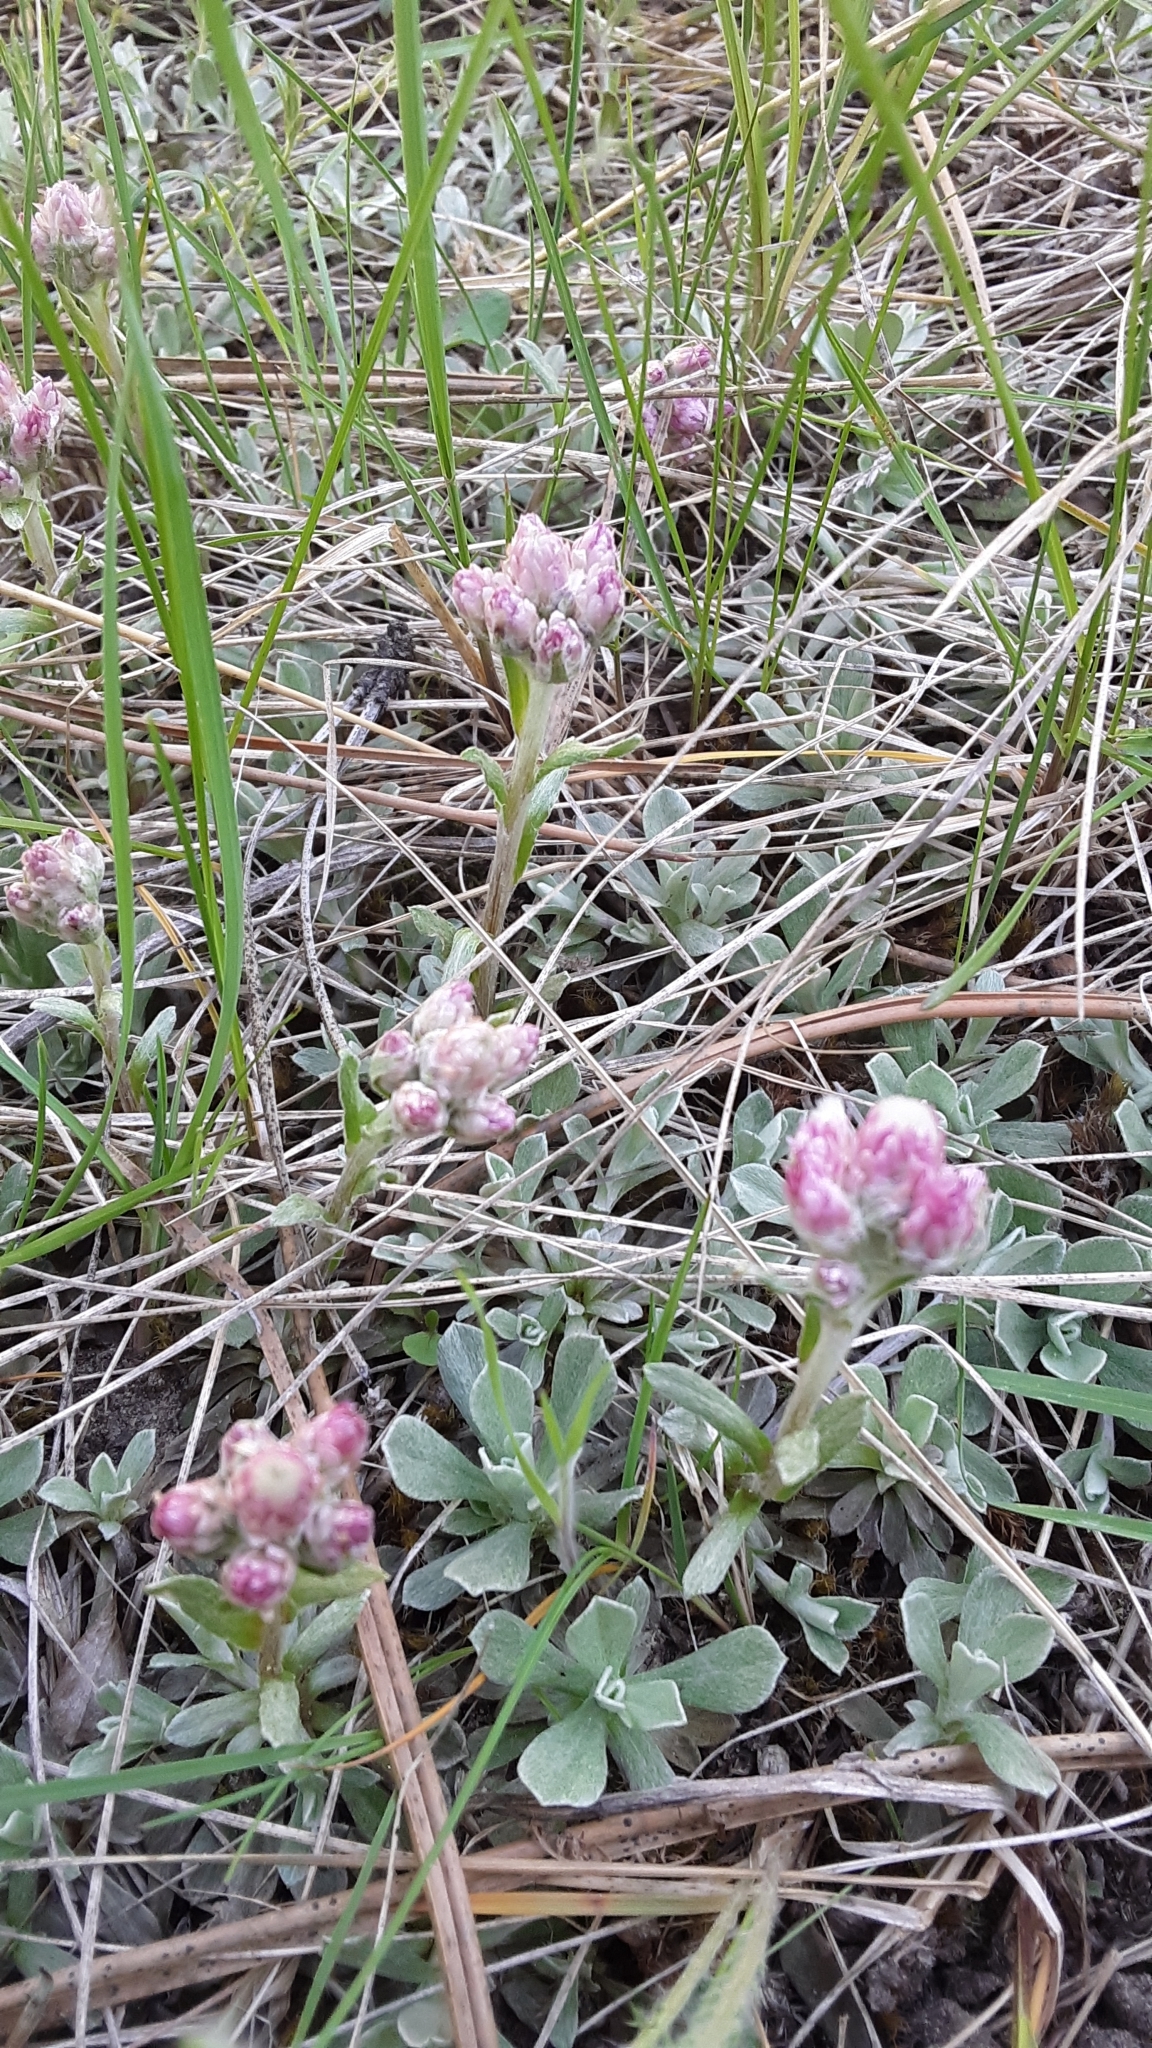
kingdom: Plantae
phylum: Tracheophyta
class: Magnoliopsida
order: Asterales
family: Asteraceae
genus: Antennaria
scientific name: Antennaria rosea
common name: Rosy pussytoes
